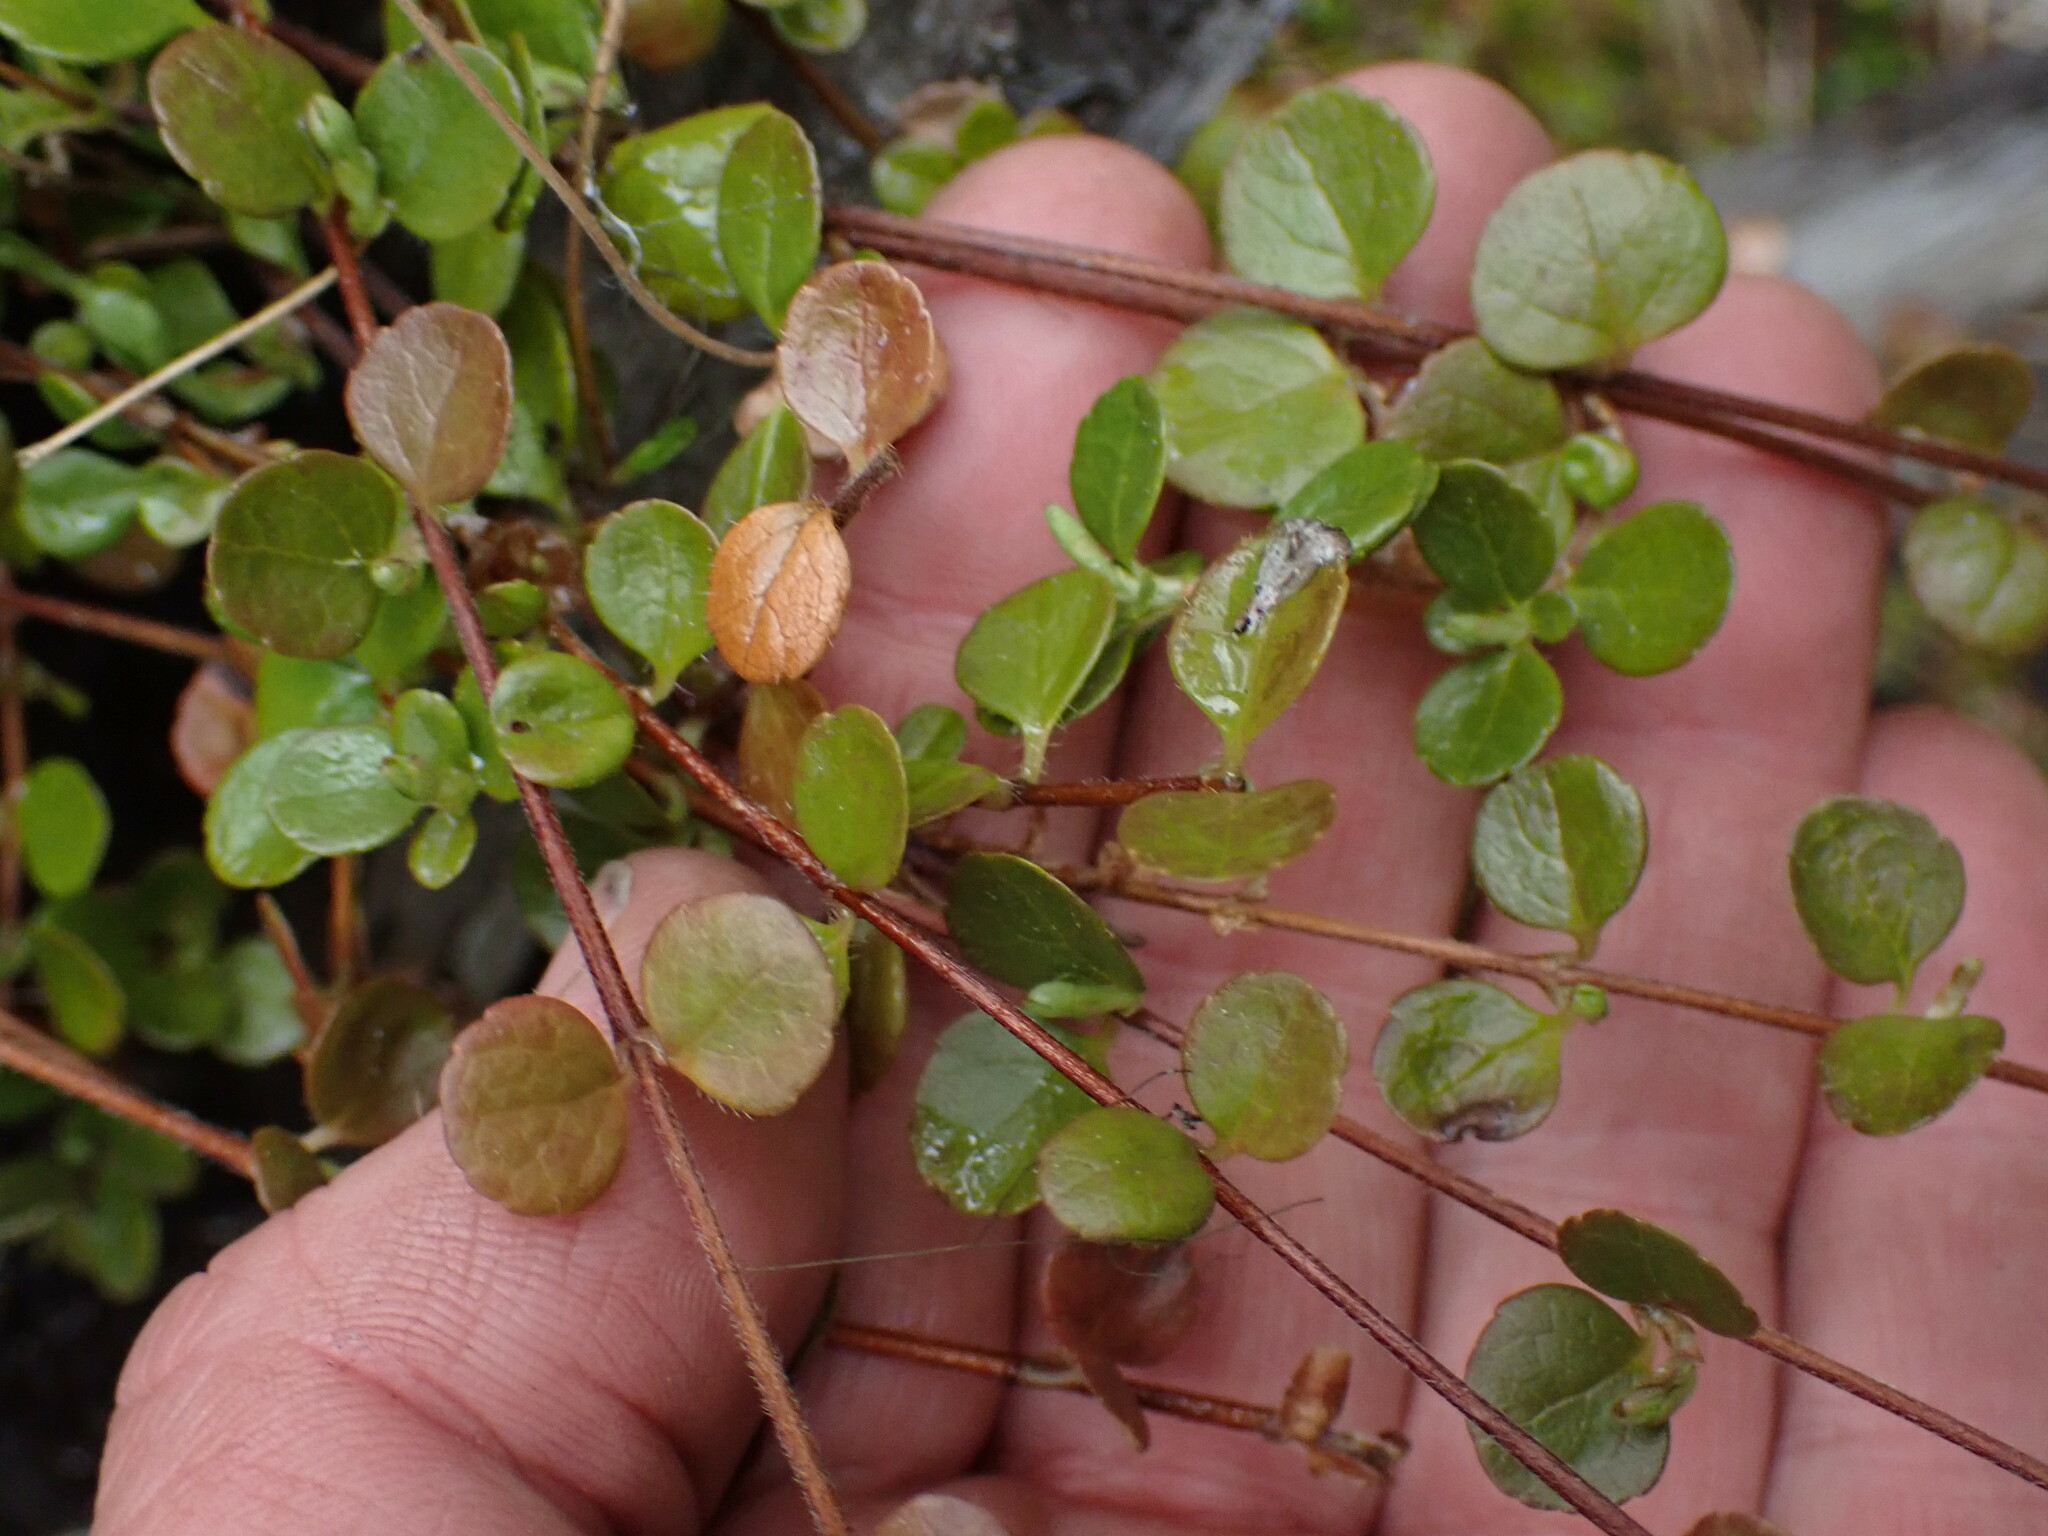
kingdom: Plantae
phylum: Tracheophyta
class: Magnoliopsida
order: Dipsacales
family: Caprifoliaceae
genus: Linnaea
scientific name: Linnaea borealis
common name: Twinflower
